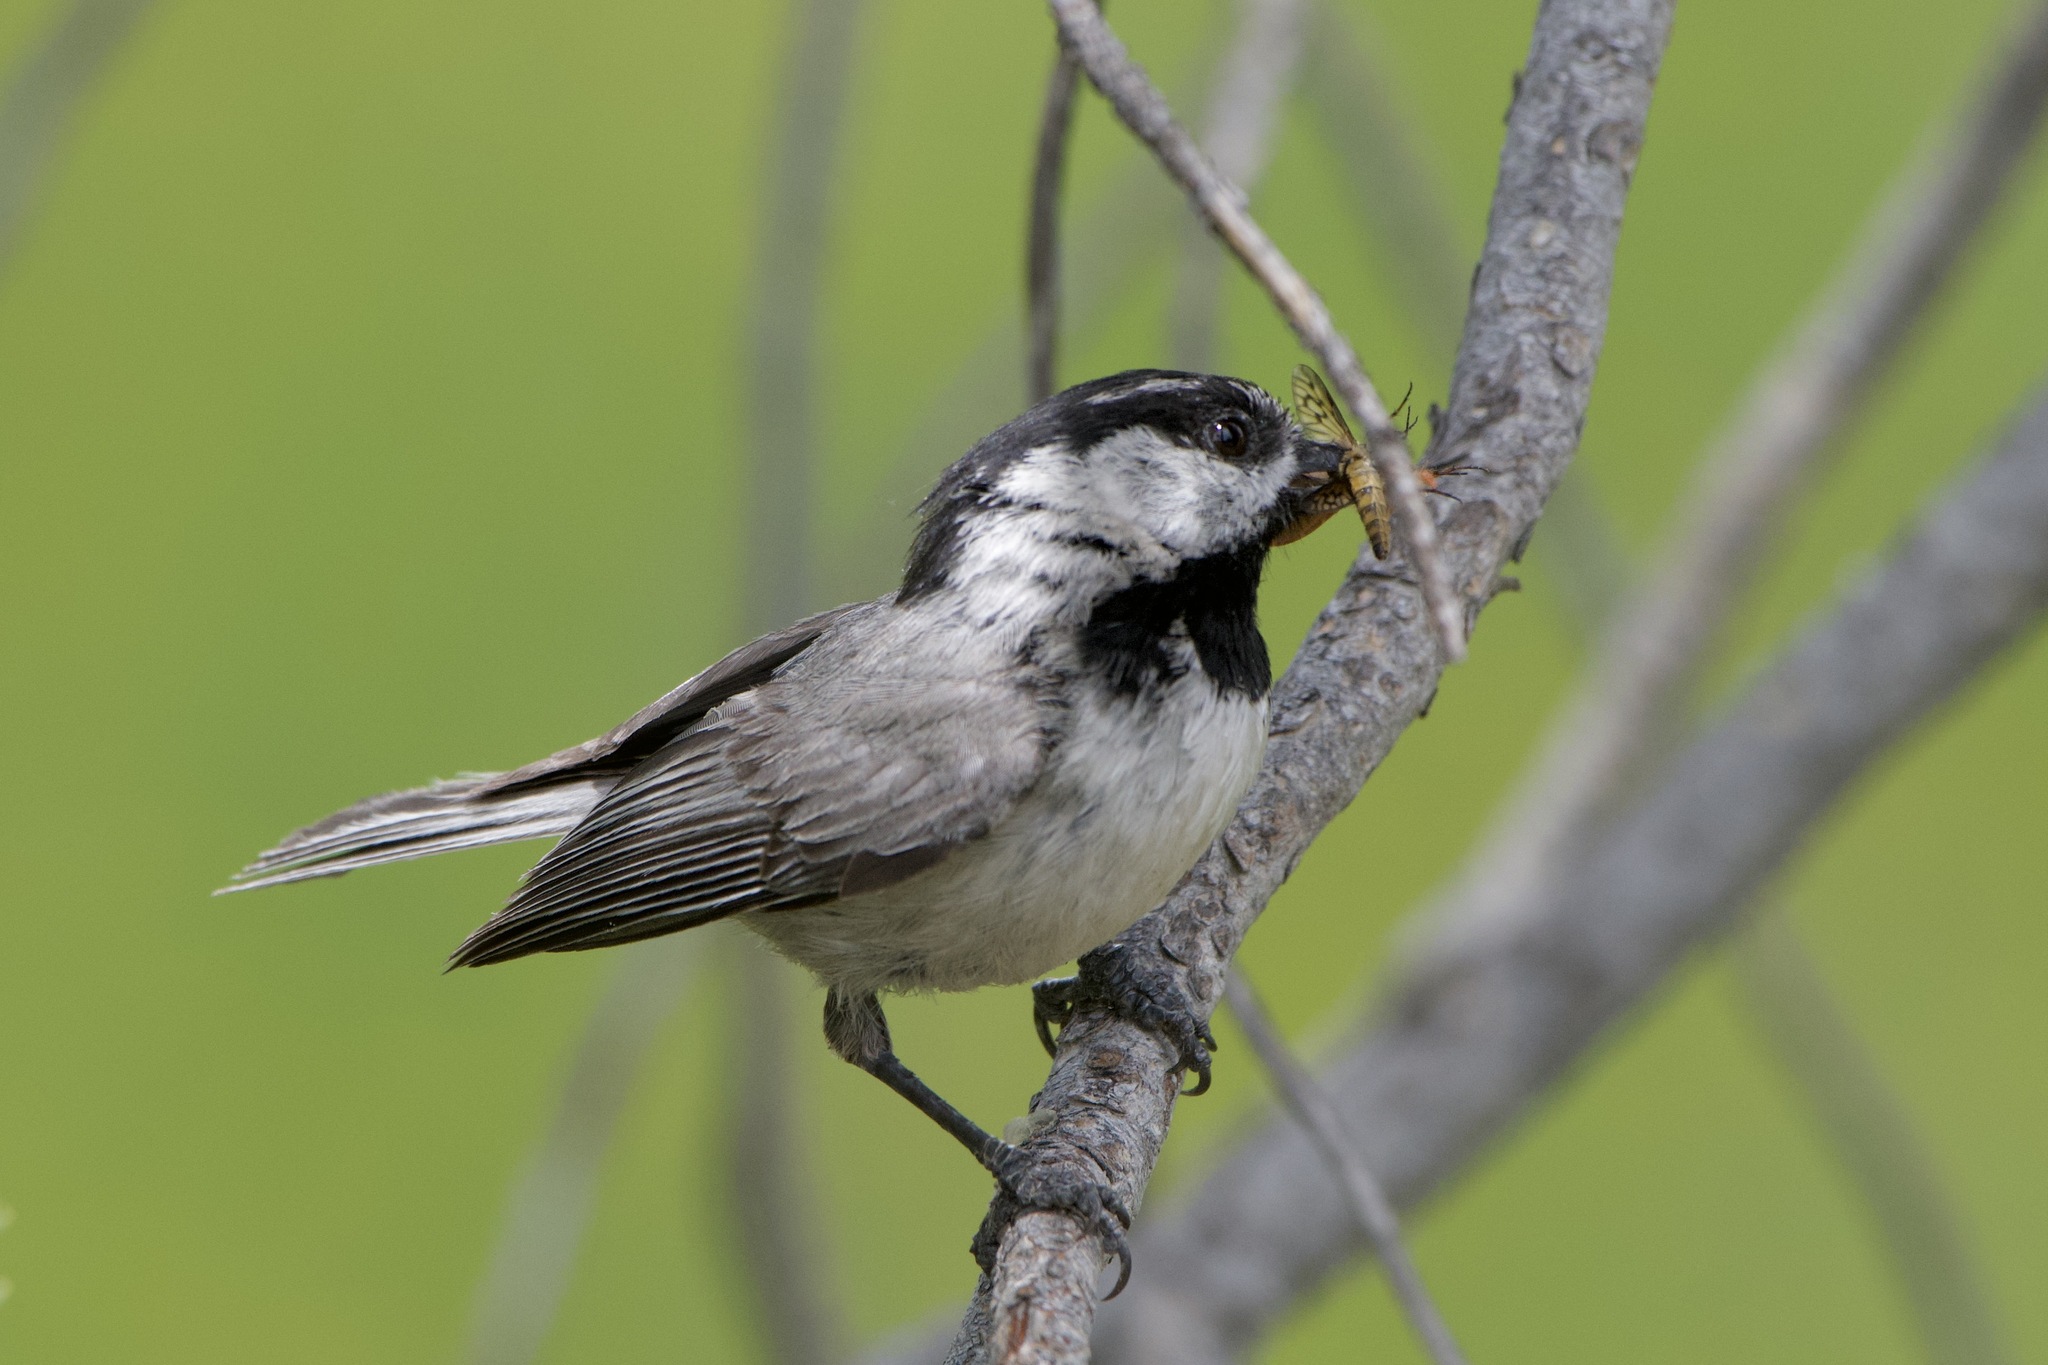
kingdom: Animalia
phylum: Chordata
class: Aves
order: Passeriformes
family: Paridae
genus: Poecile
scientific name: Poecile gambeli
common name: Mountain chickadee
